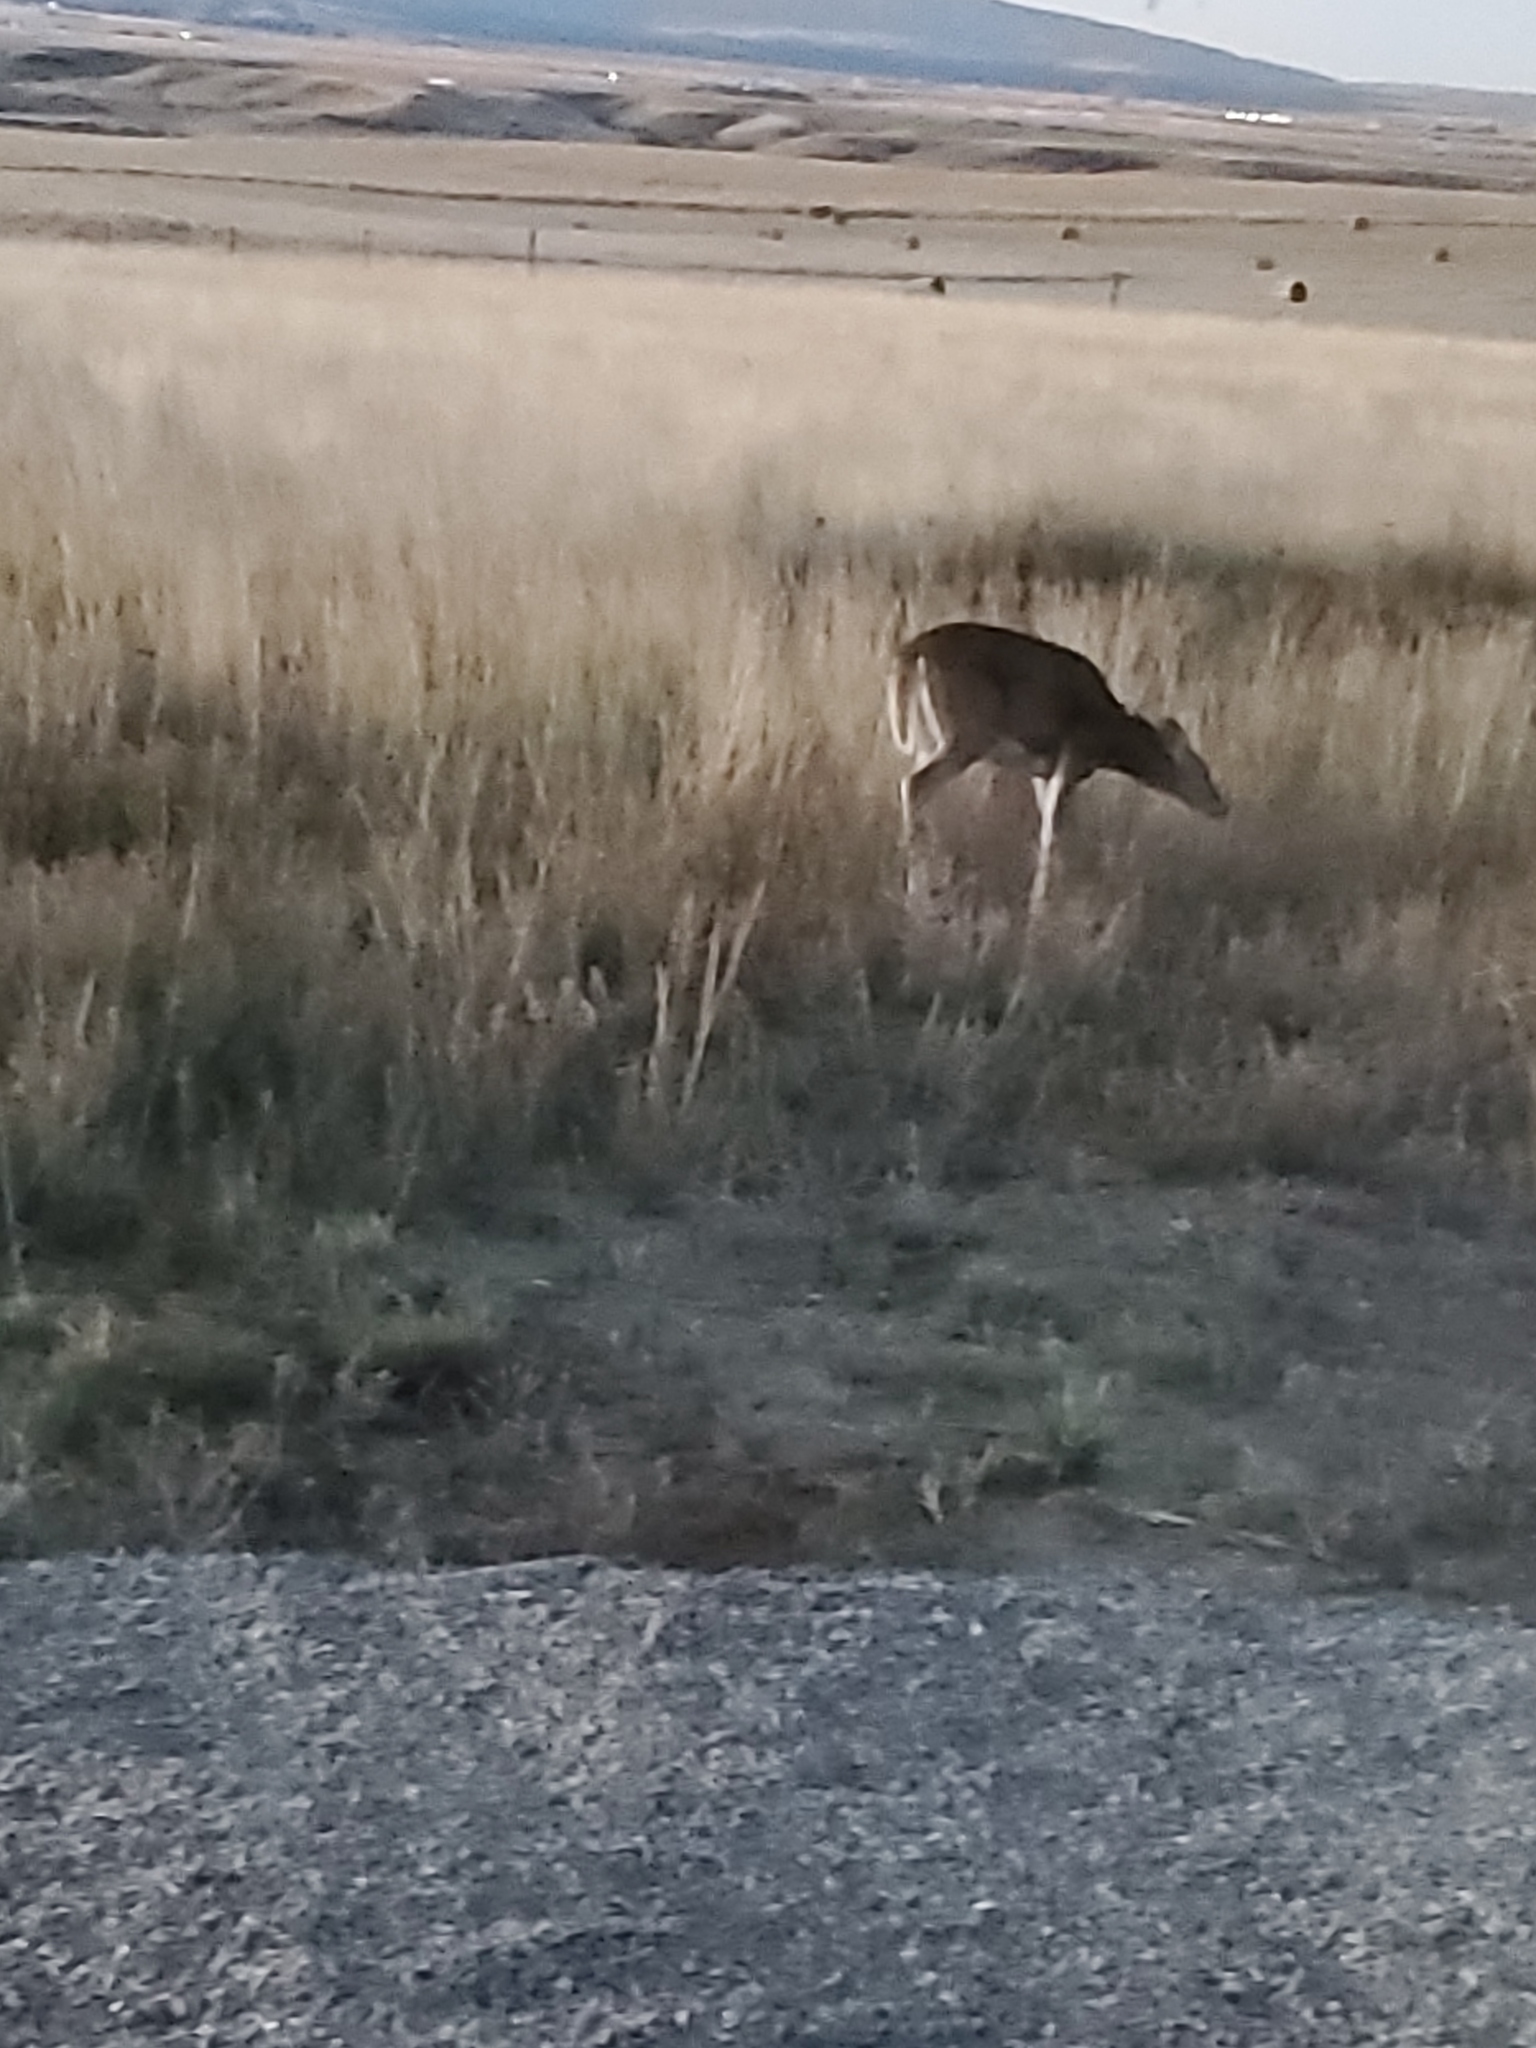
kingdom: Animalia
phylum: Chordata
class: Mammalia
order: Artiodactyla
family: Cervidae
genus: Odocoileus
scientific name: Odocoileus virginianus
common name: White-tailed deer
